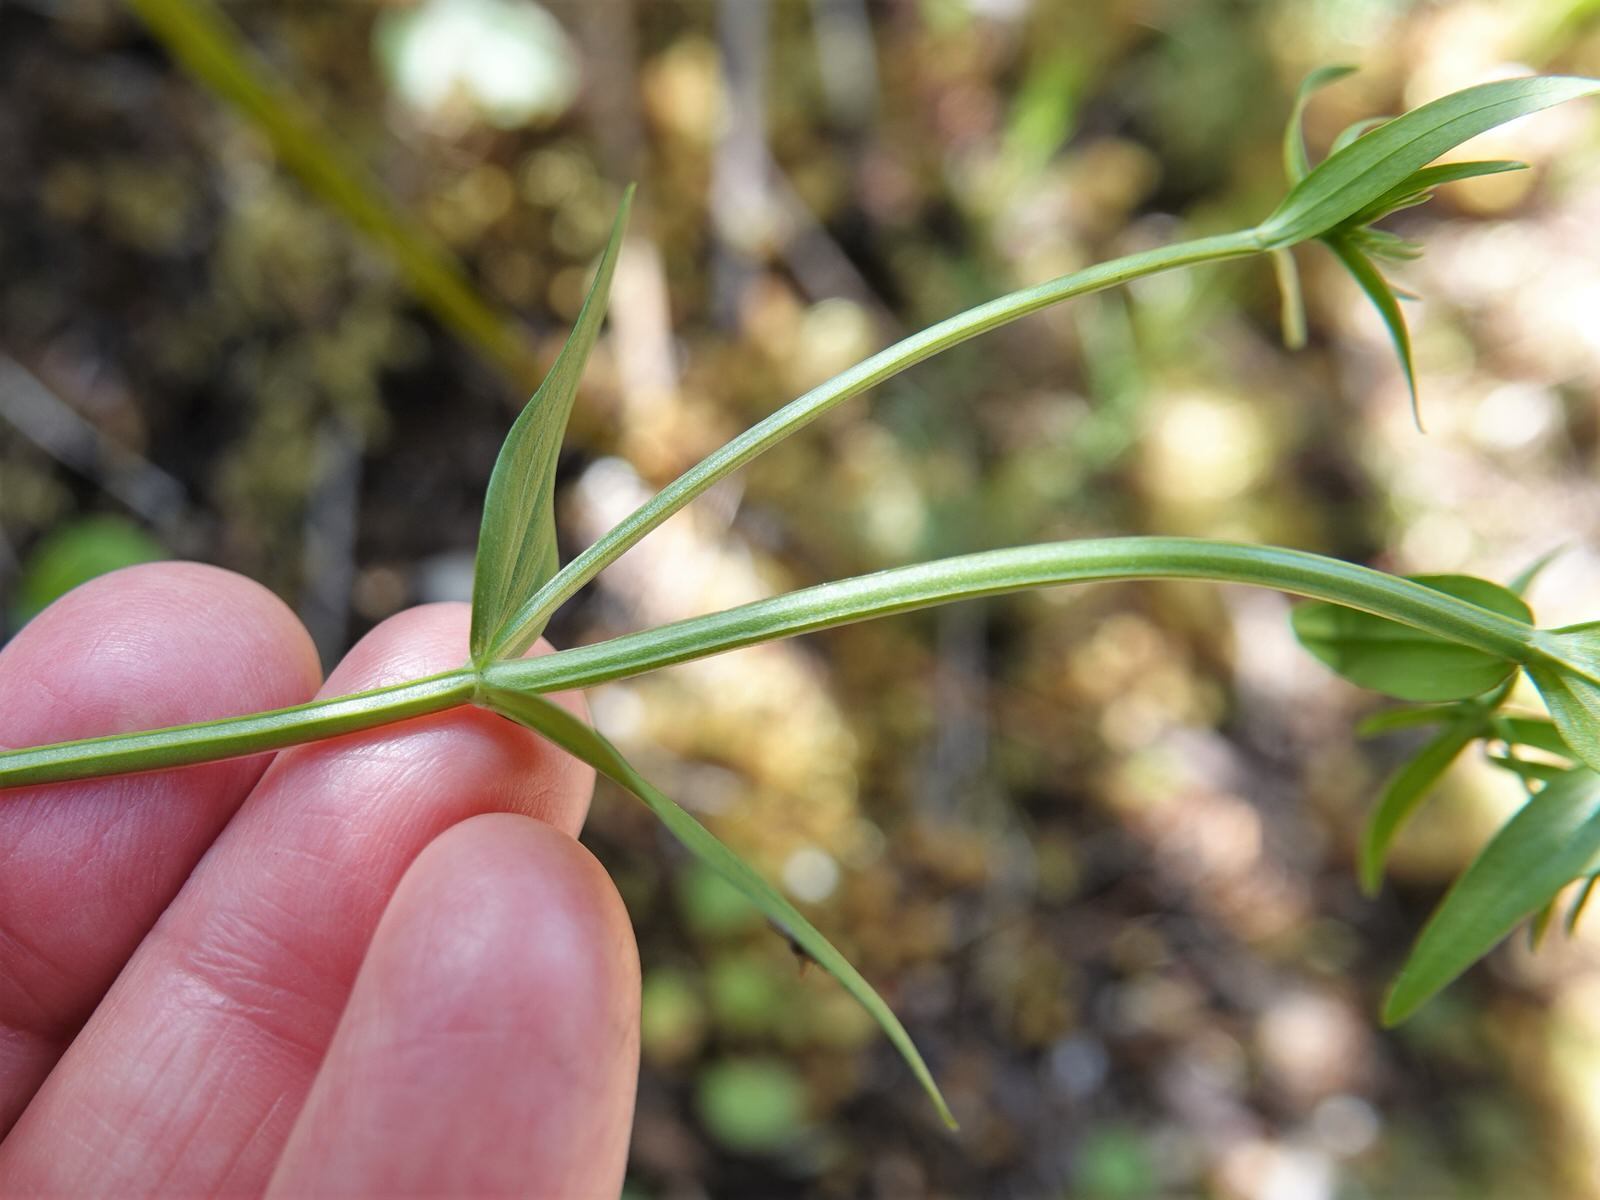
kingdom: Plantae
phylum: Tracheophyta
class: Magnoliopsida
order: Gentianales
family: Gentianaceae
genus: Centaurium
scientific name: Centaurium erythraea
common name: Common centaury
